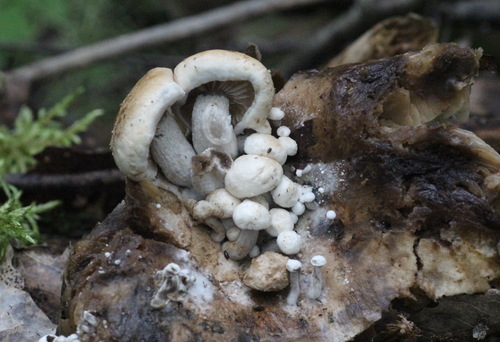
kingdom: Fungi
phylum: Basidiomycota
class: Agaricomycetes
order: Agaricales
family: Lyophyllaceae
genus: Asterophora
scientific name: Asterophora lycoperdoides
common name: Pick-a-back toadstool
